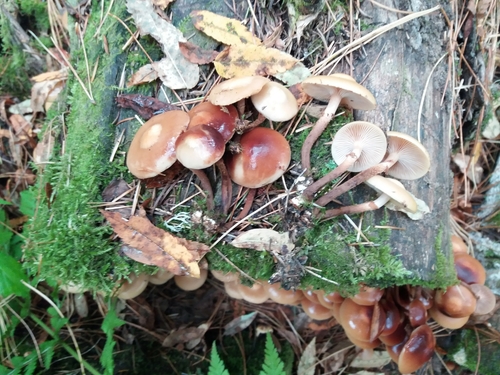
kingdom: Fungi
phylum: Basidiomycota
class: Agaricomycetes
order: Agaricales
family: Strophariaceae
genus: Kuehneromyces
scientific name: Kuehneromyces mutabilis
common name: Sheathed woodtuft
